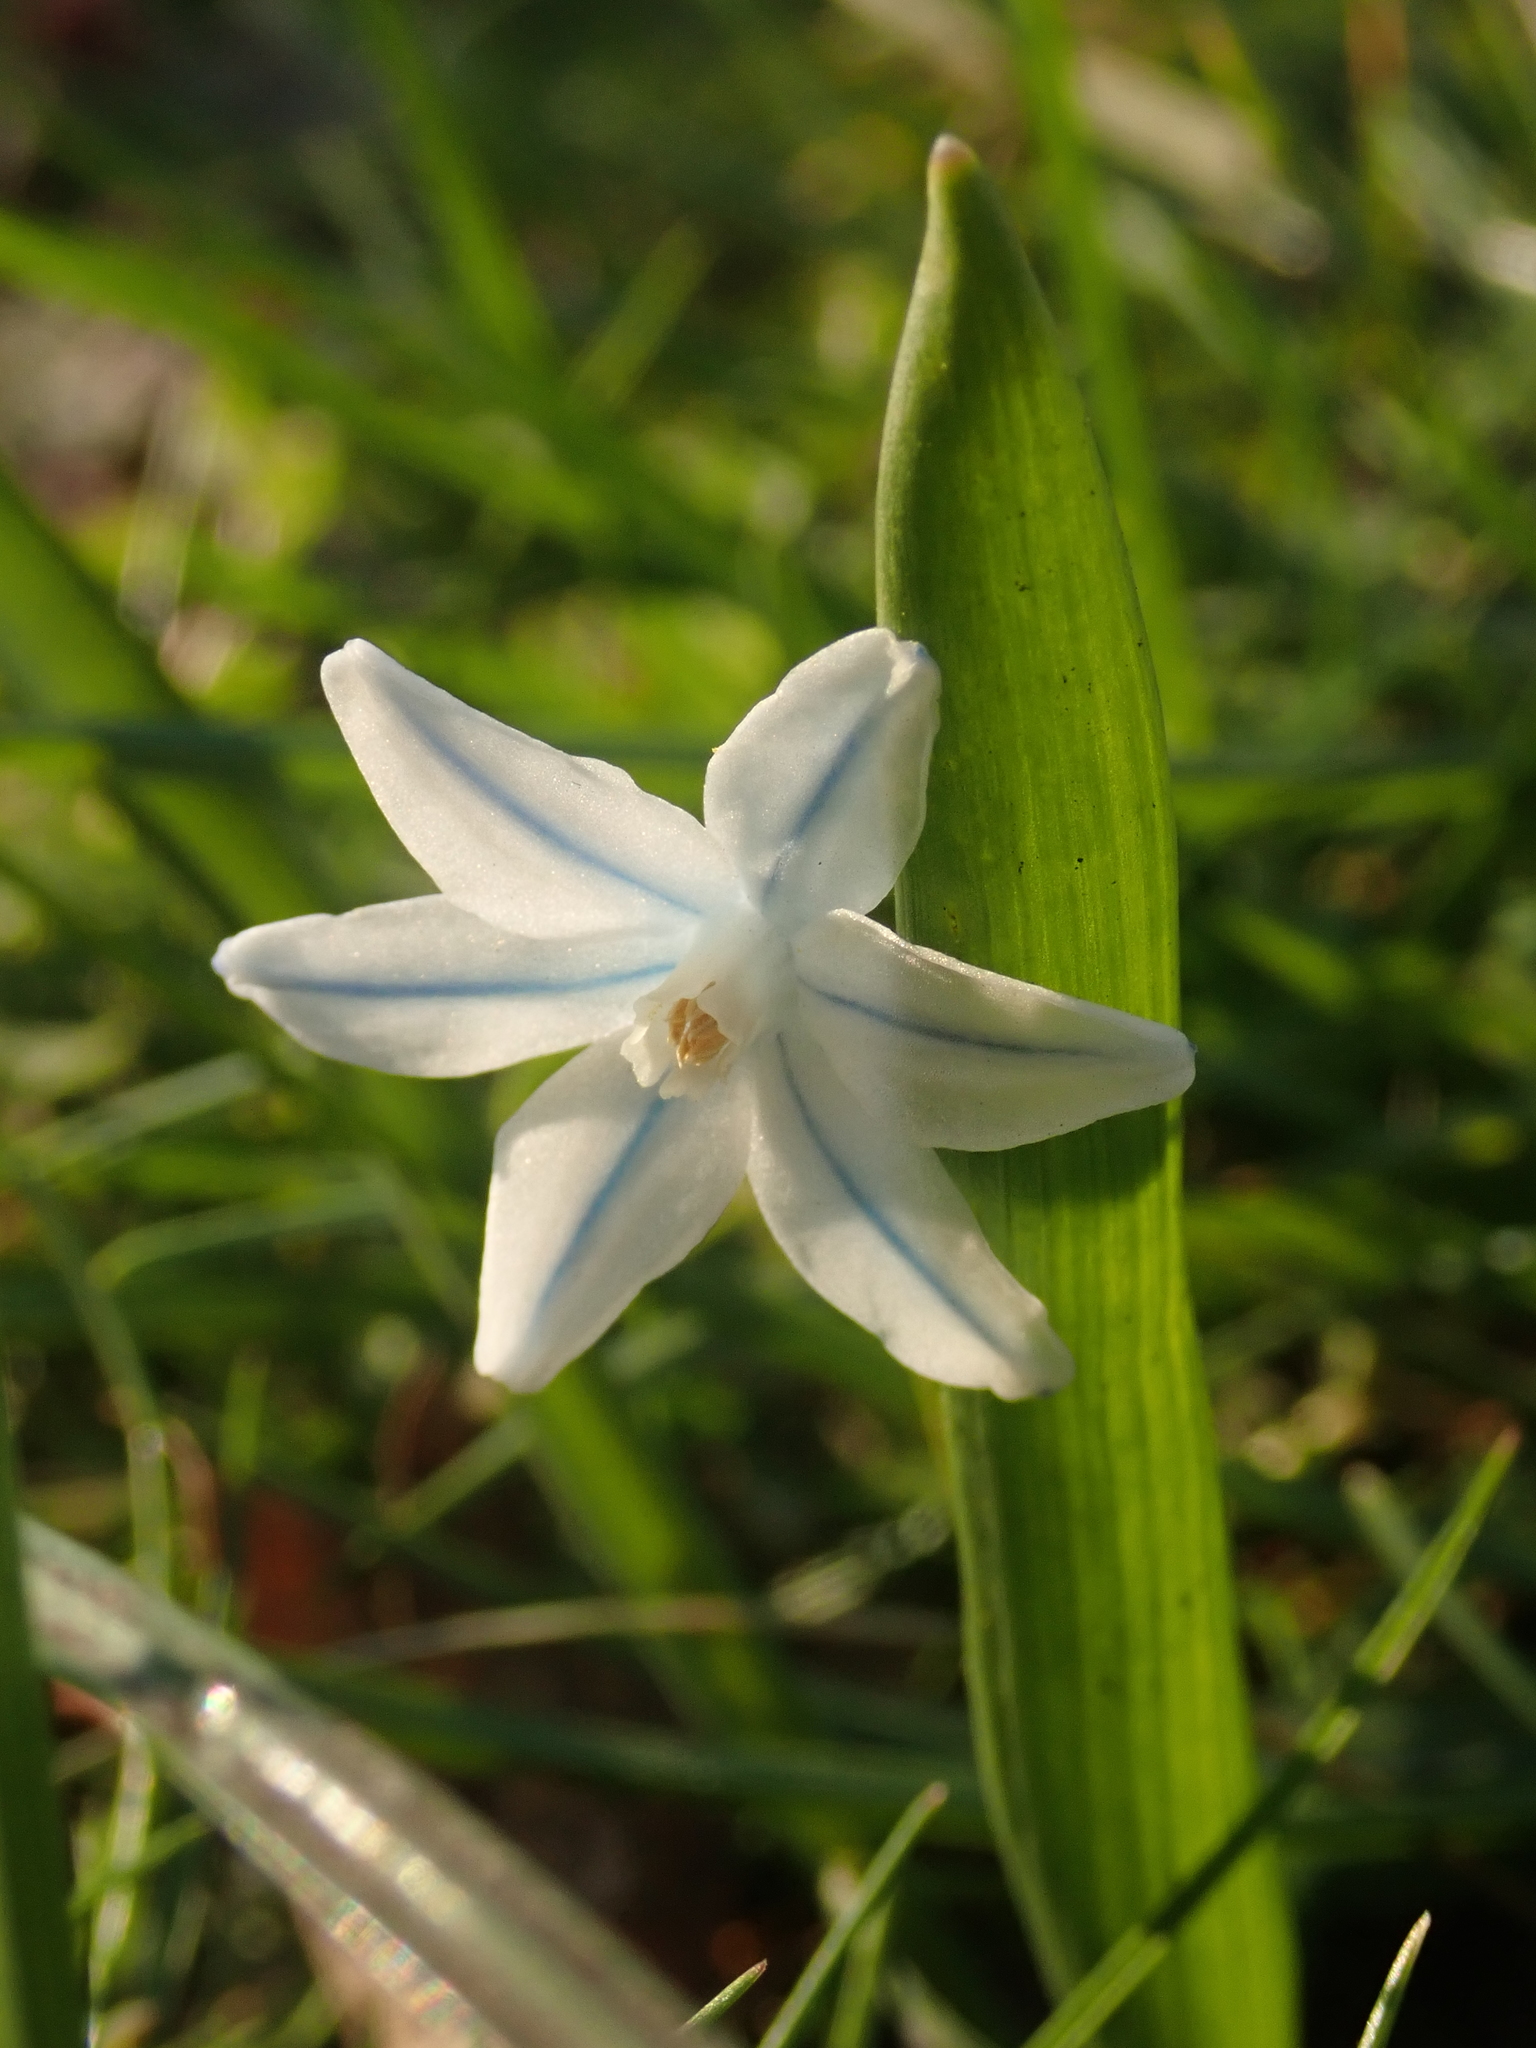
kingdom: Plantae
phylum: Tracheophyta
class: Liliopsida
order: Asparagales
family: Asparagaceae
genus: Puschkinia
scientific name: Puschkinia scilloides
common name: Striped squill
